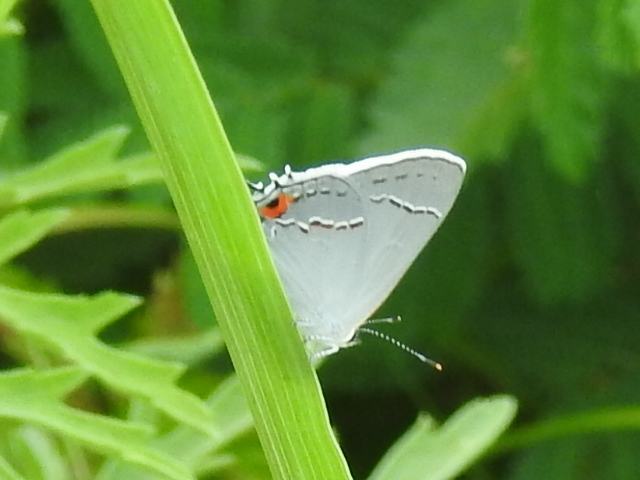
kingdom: Animalia
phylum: Arthropoda
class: Insecta
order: Lepidoptera
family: Lycaenidae
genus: Strymon
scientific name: Strymon melinus
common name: Gray hairstreak
